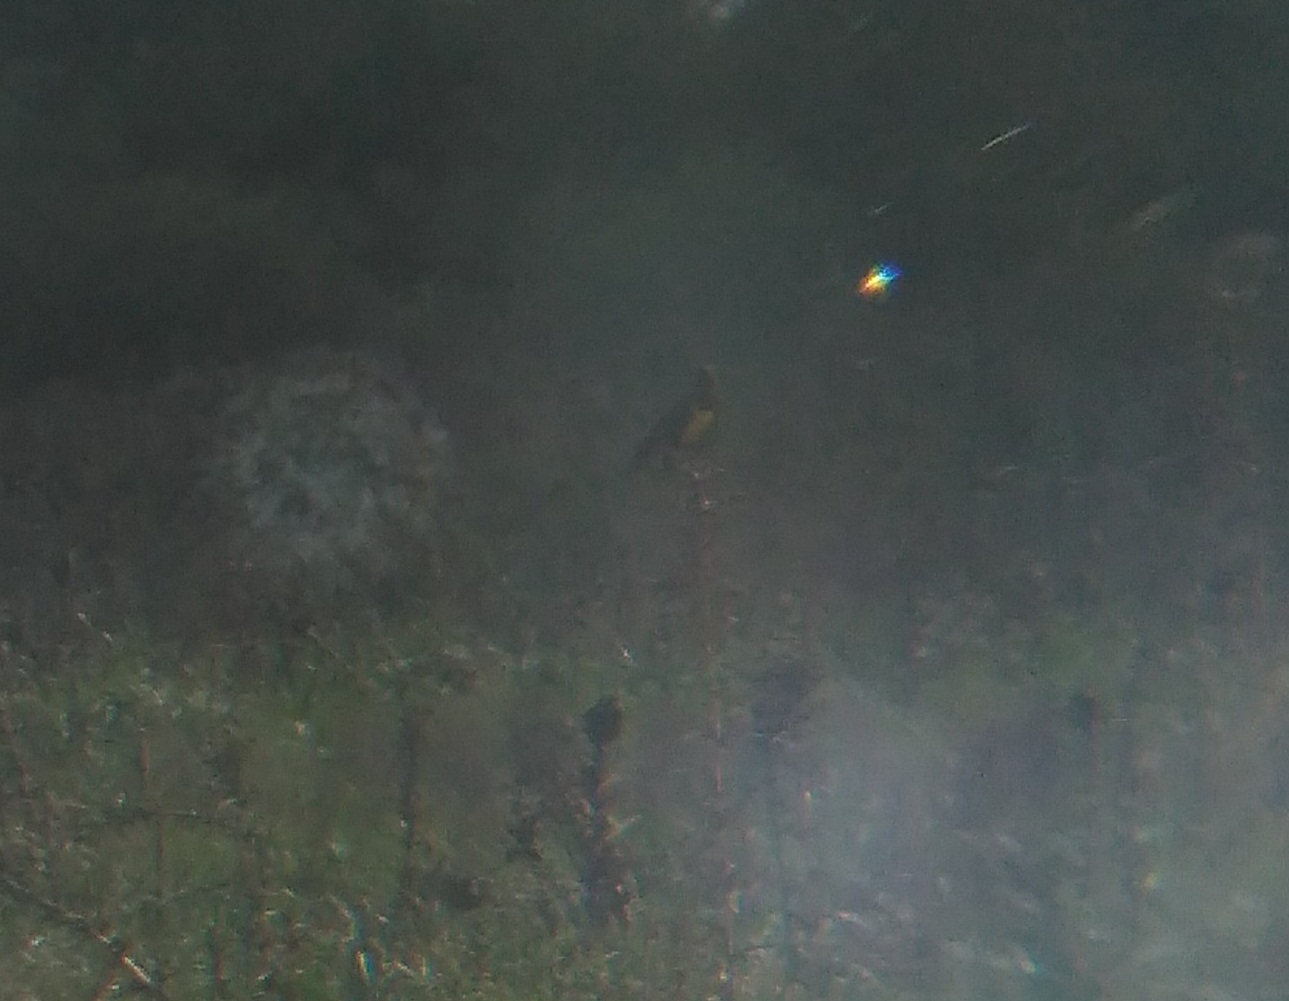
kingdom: Animalia
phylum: Chordata
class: Aves
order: Passeriformes
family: Icteridae
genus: Pseudoleistes
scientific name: Pseudoleistes virescens
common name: Brown-and-yellow marshbird
